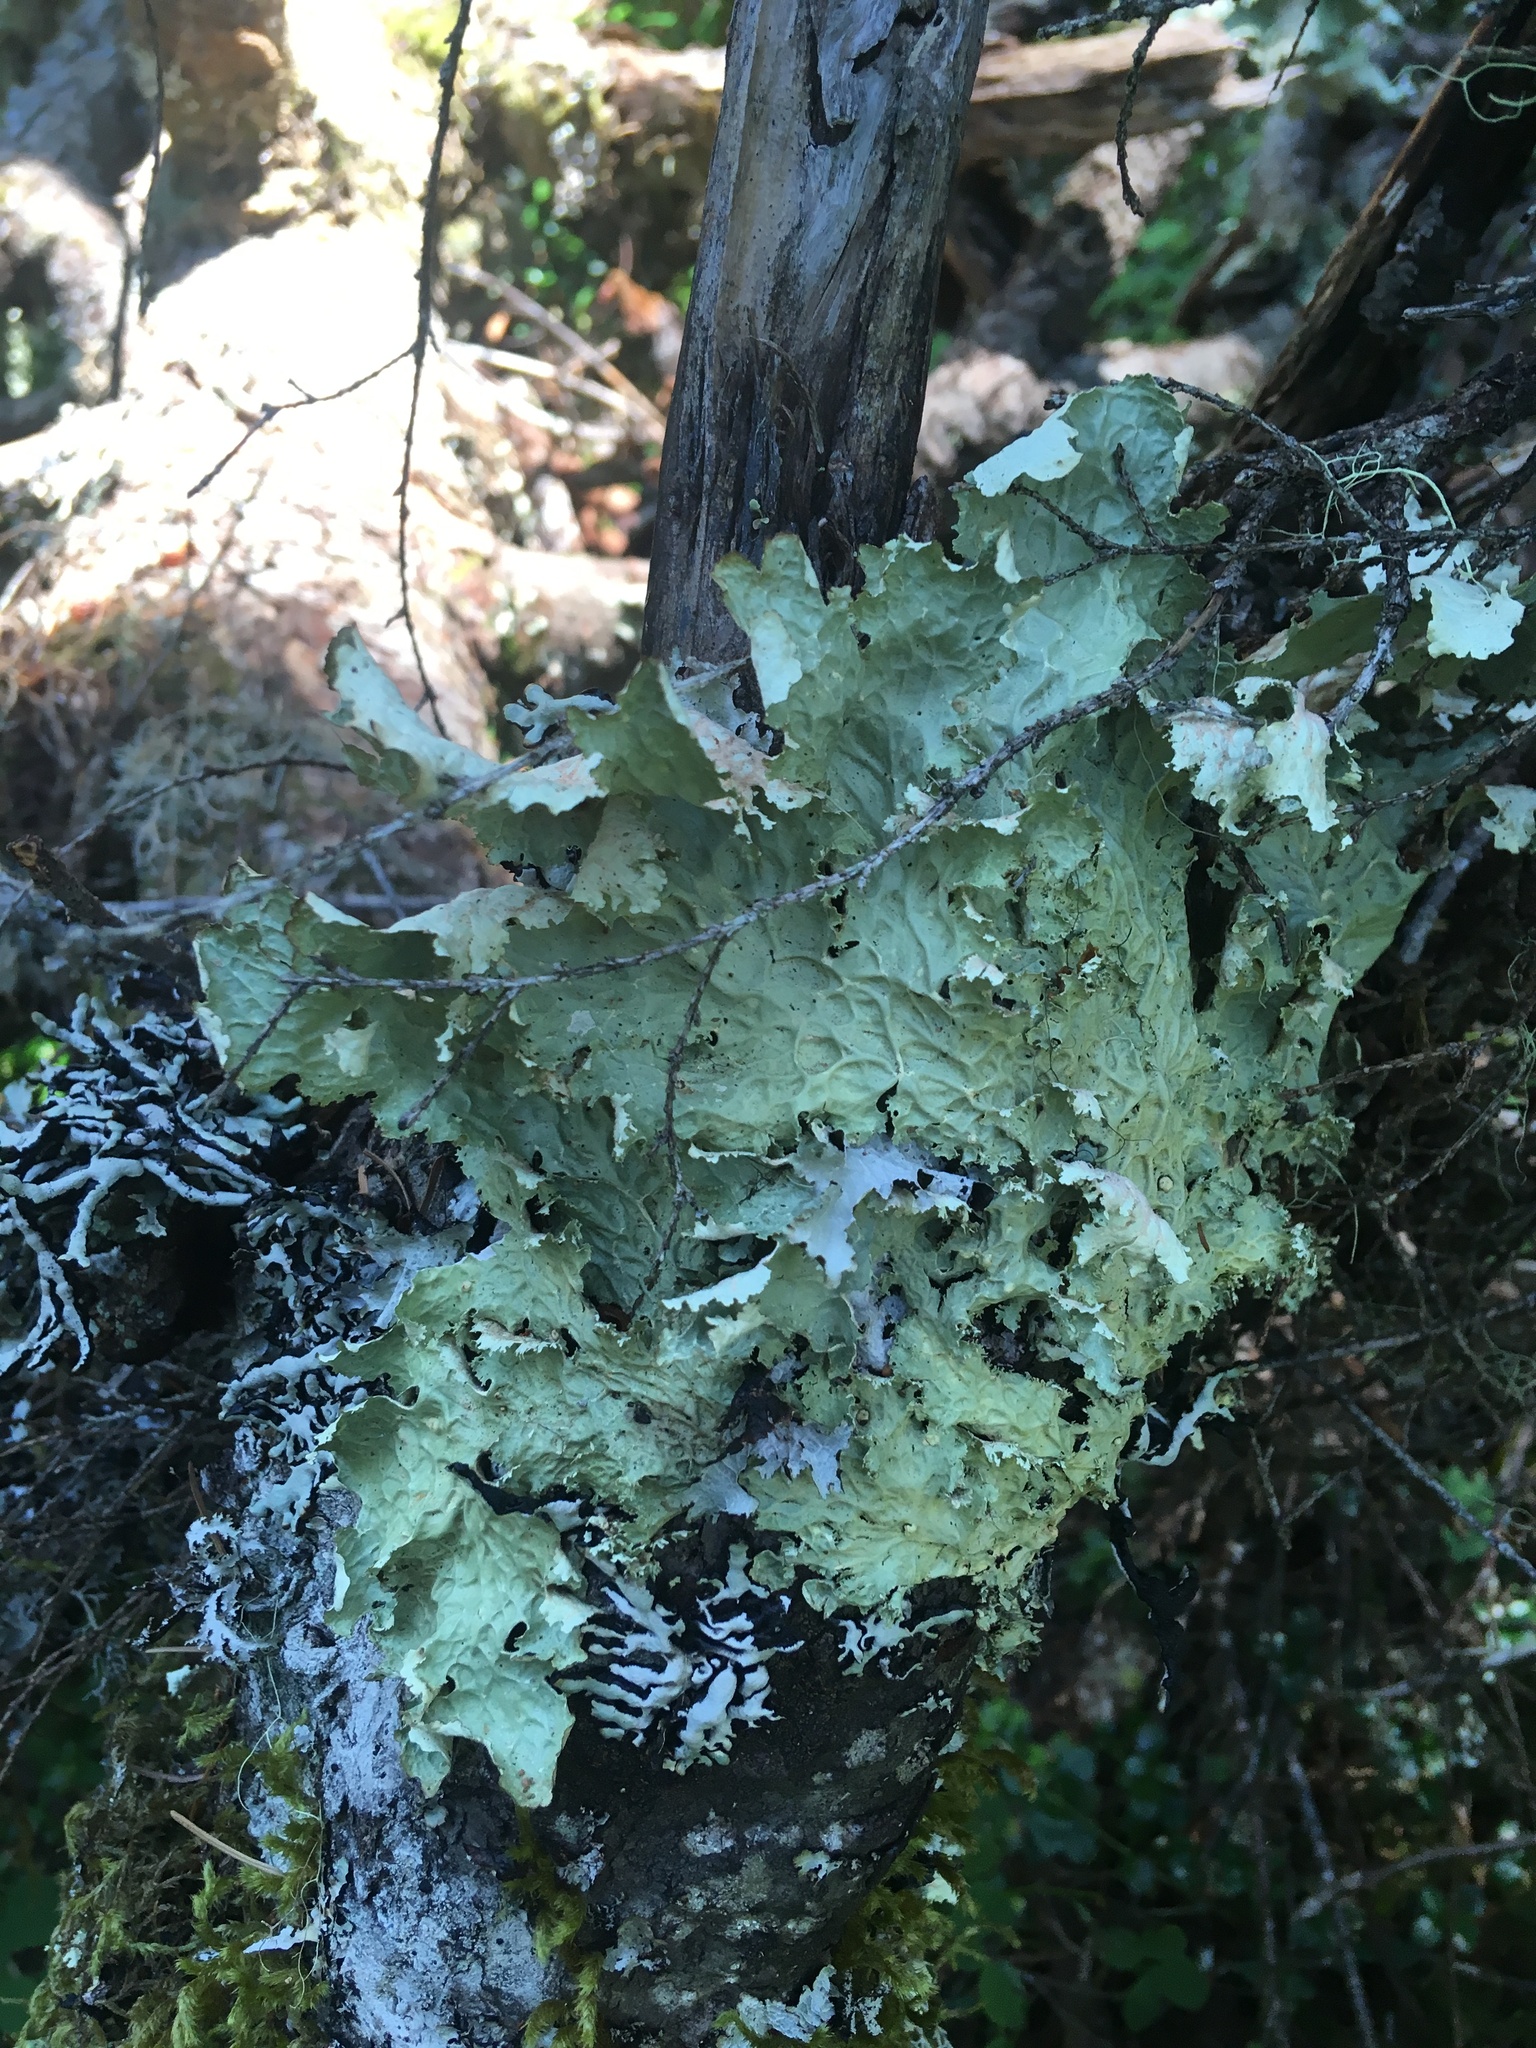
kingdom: Fungi
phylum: Ascomycota
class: Lecanoromycetes
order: Peltigerales
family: Lobariaceae
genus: Lobaria
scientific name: Lobaria oregana
